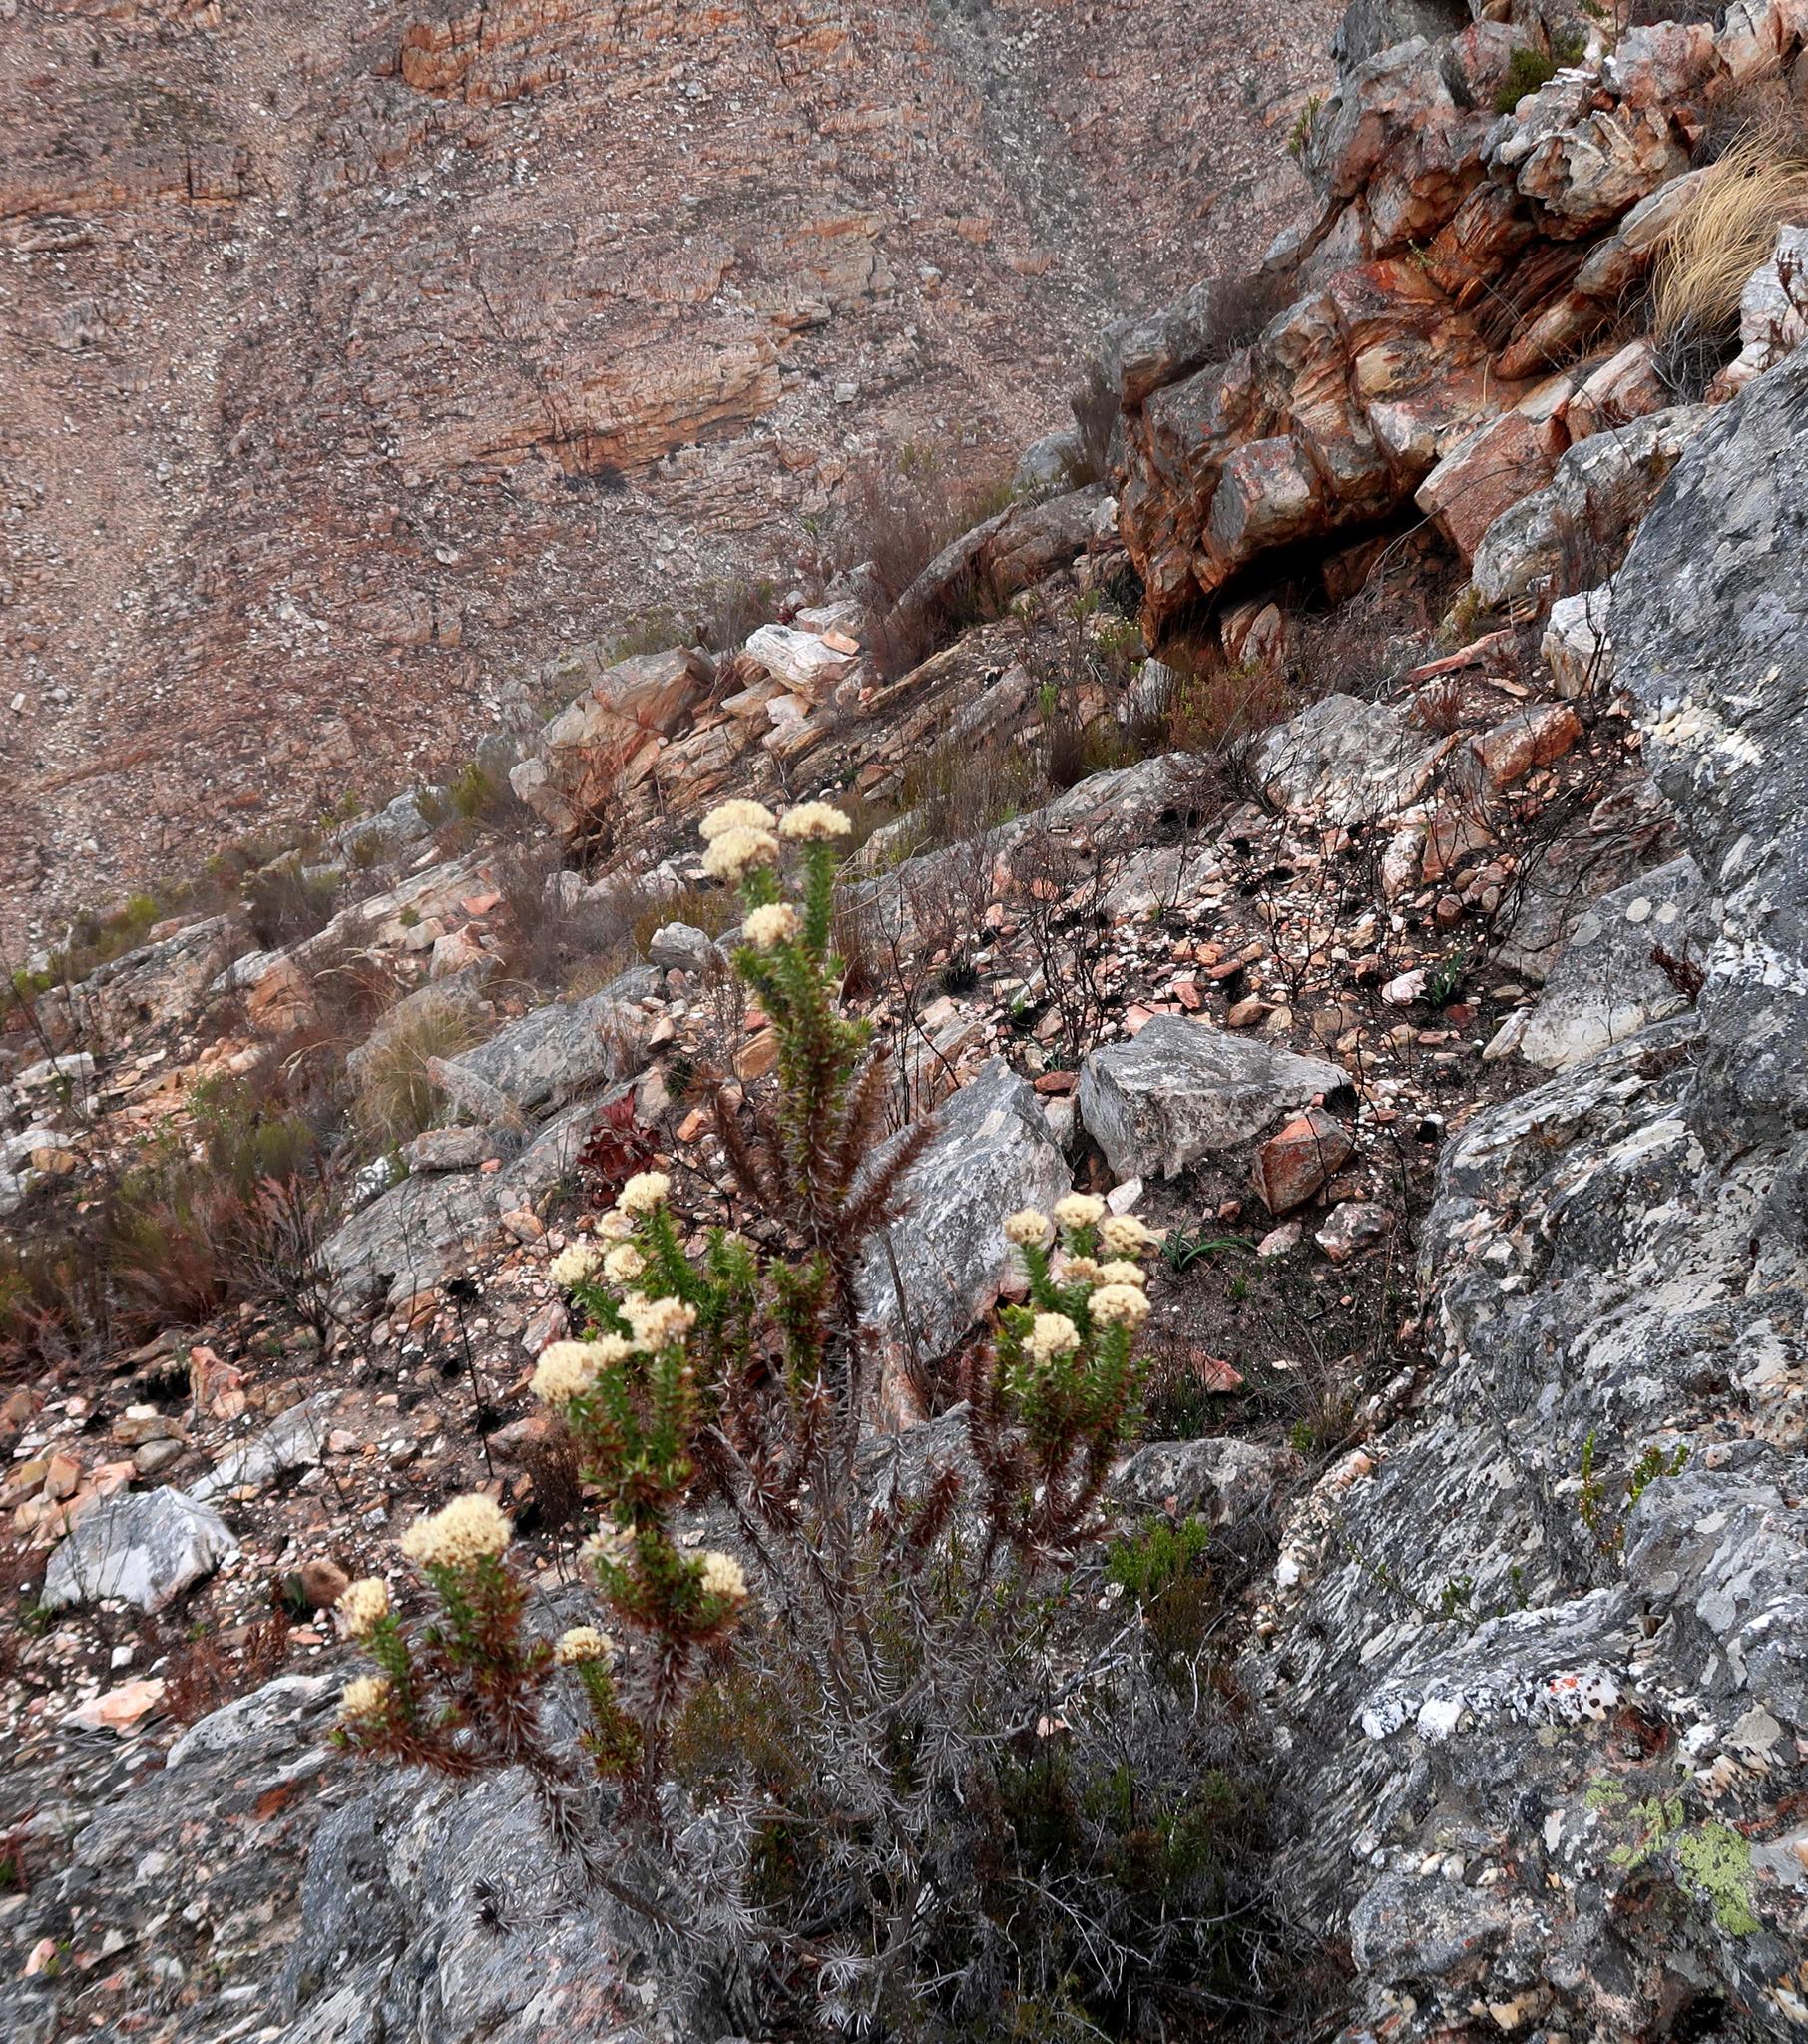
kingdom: Plantae
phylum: Tracheophyta
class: Magnoliopsida
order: Asterales
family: Asteraceae
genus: Metalasia
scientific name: Metalasia trivialis
